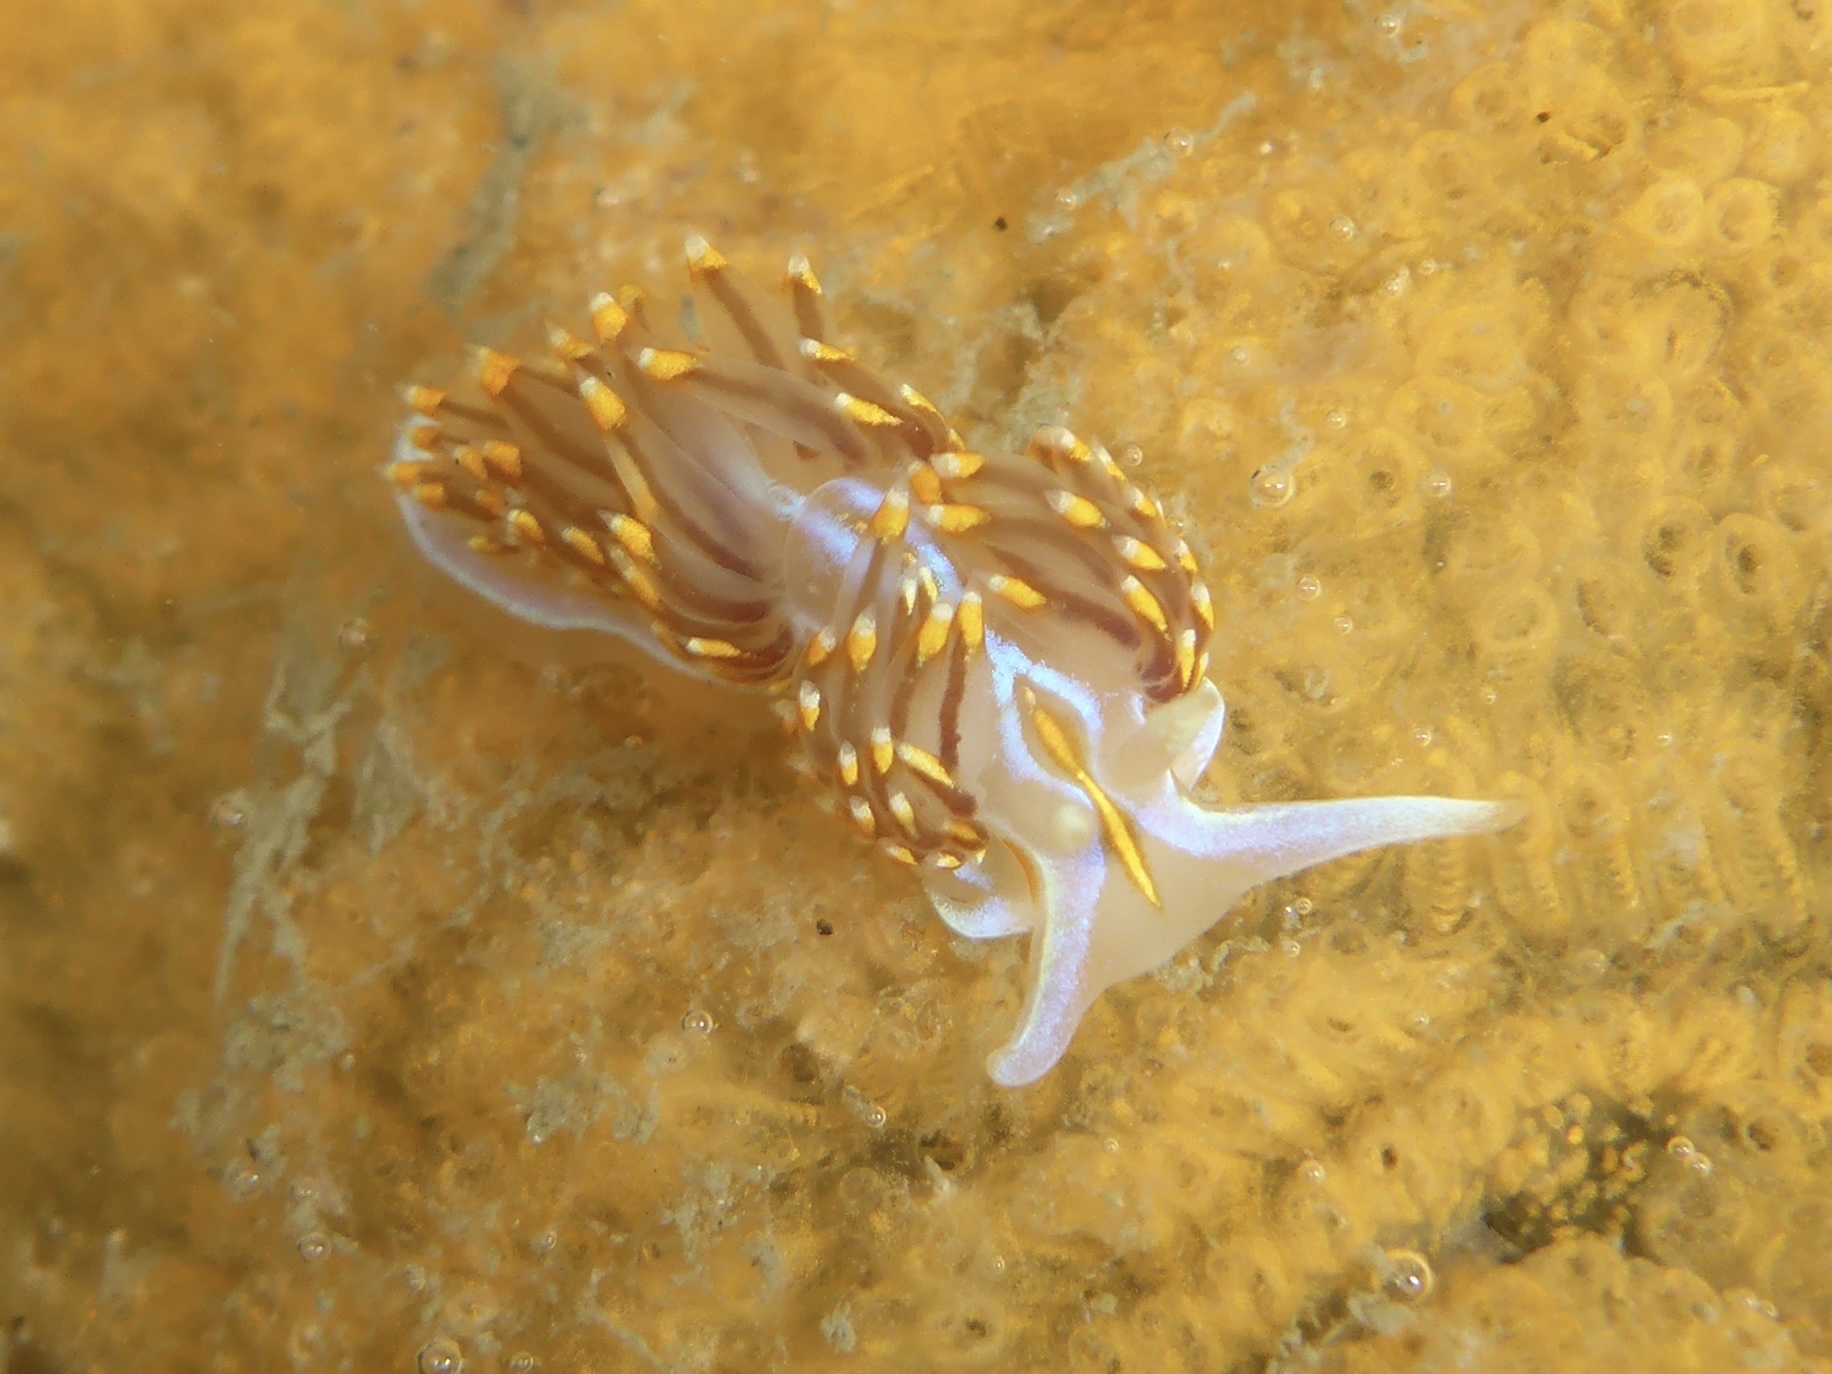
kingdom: Animalia
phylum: Mollusca
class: Gastropoda
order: Nudibranchia
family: Myrrhinidae
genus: Hermissenda
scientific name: Hermissenda opalescens
